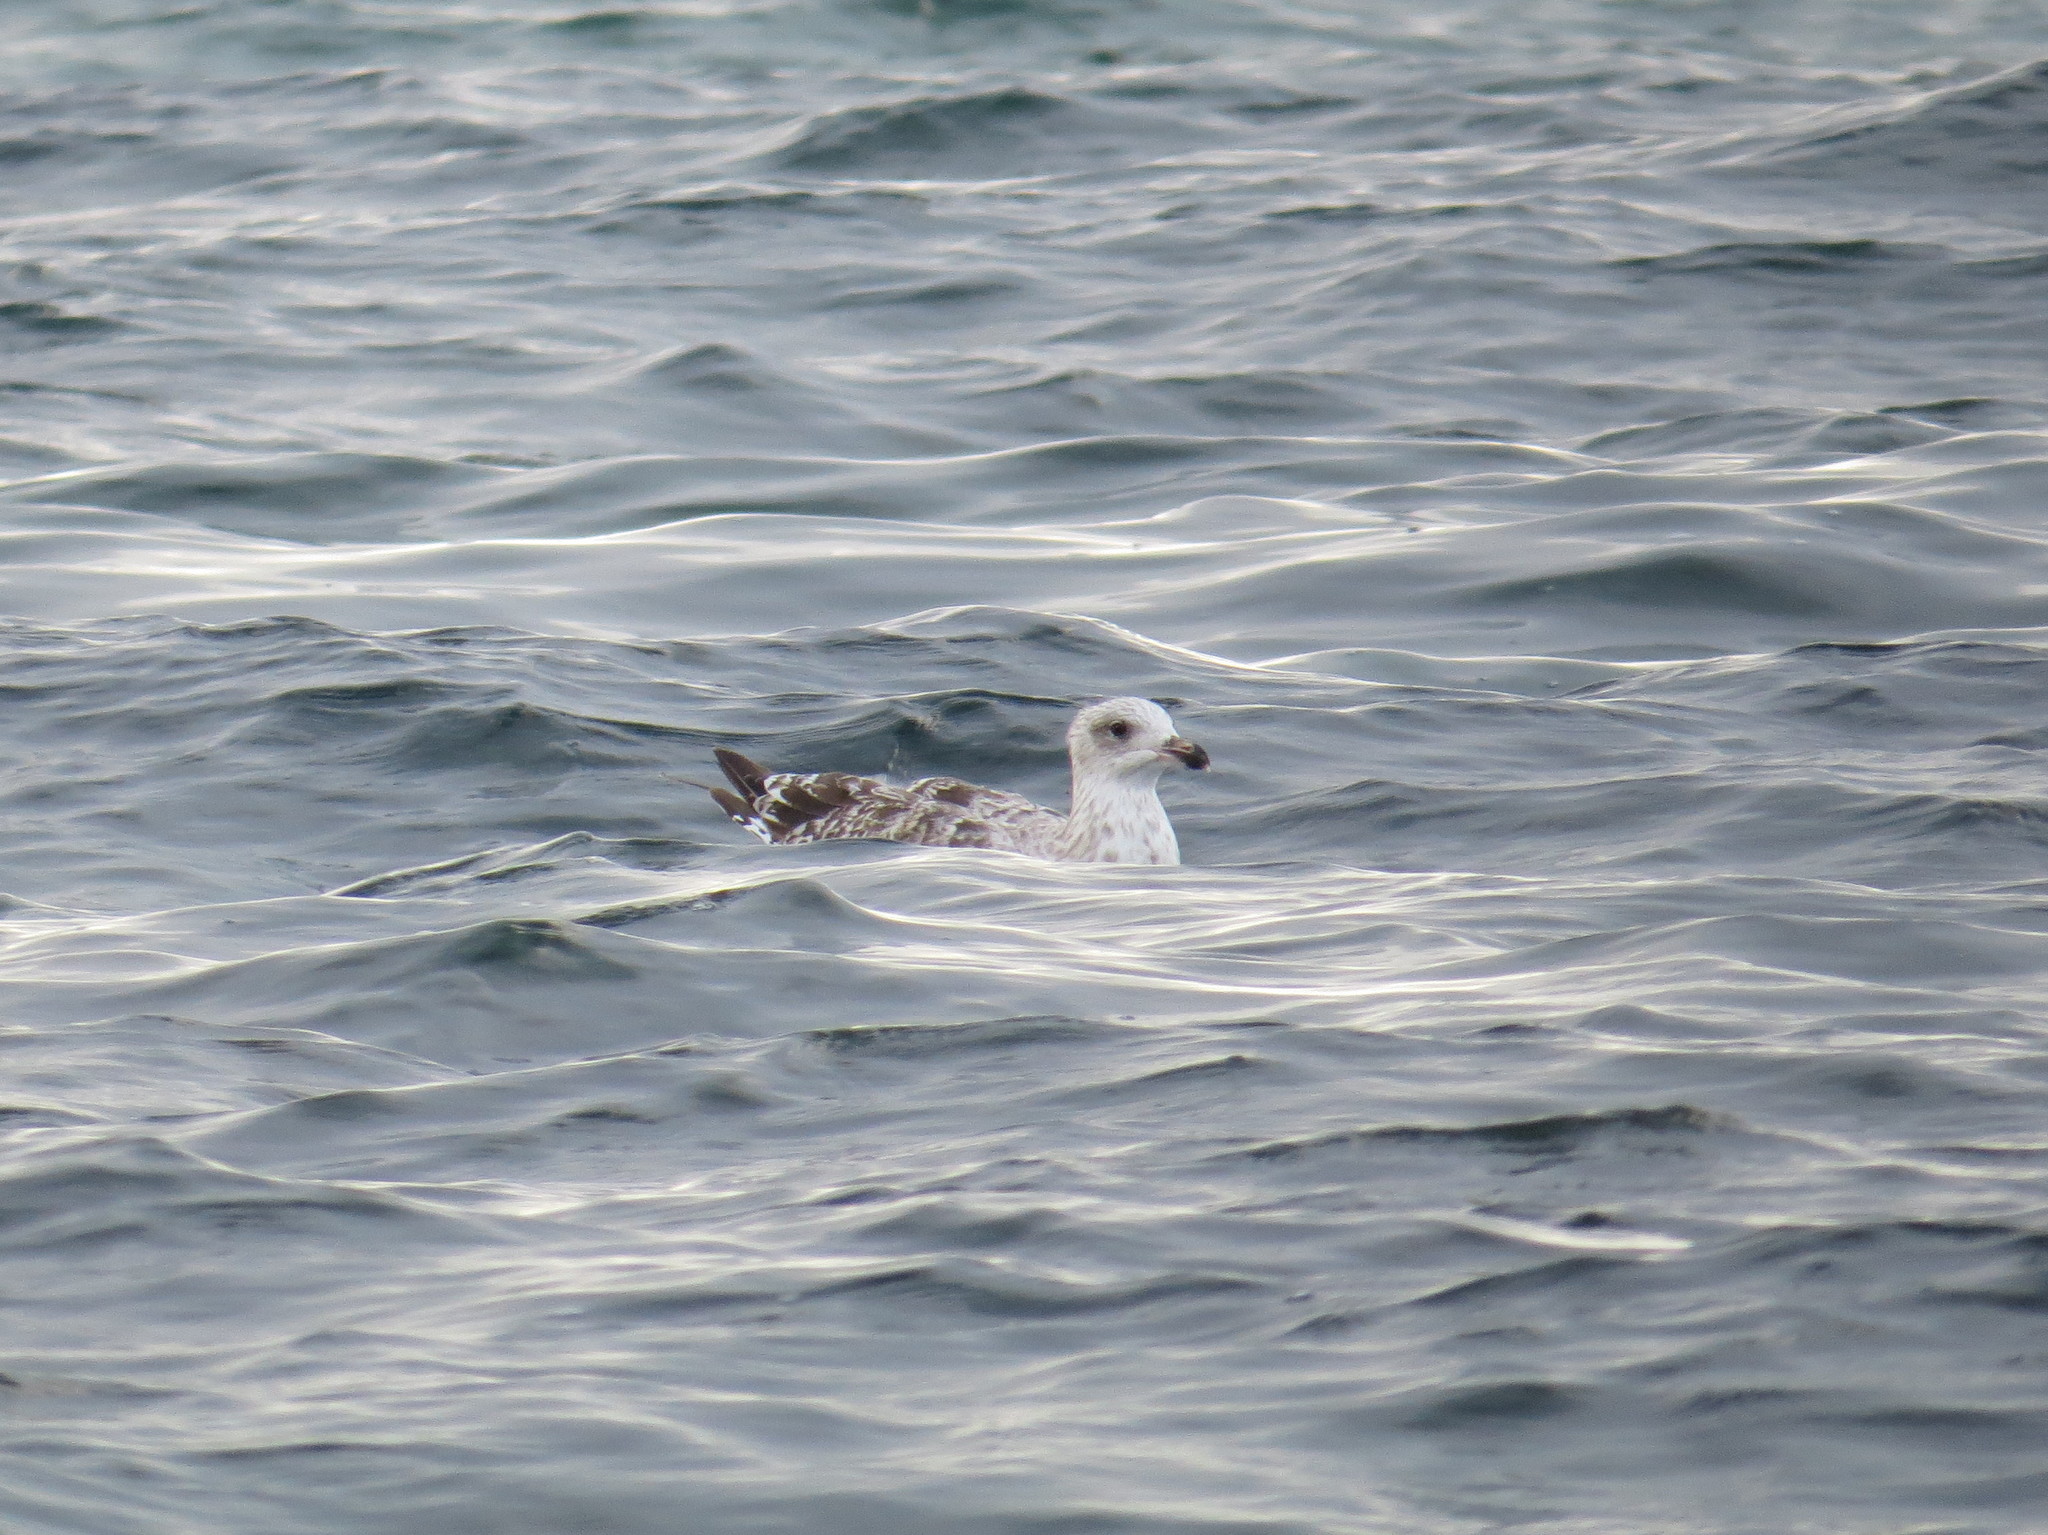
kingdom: Animalia
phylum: Chordata
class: Aves
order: Charadriiformes
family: Laridae
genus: Larus
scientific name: Larus argentatus
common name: Herring gull
